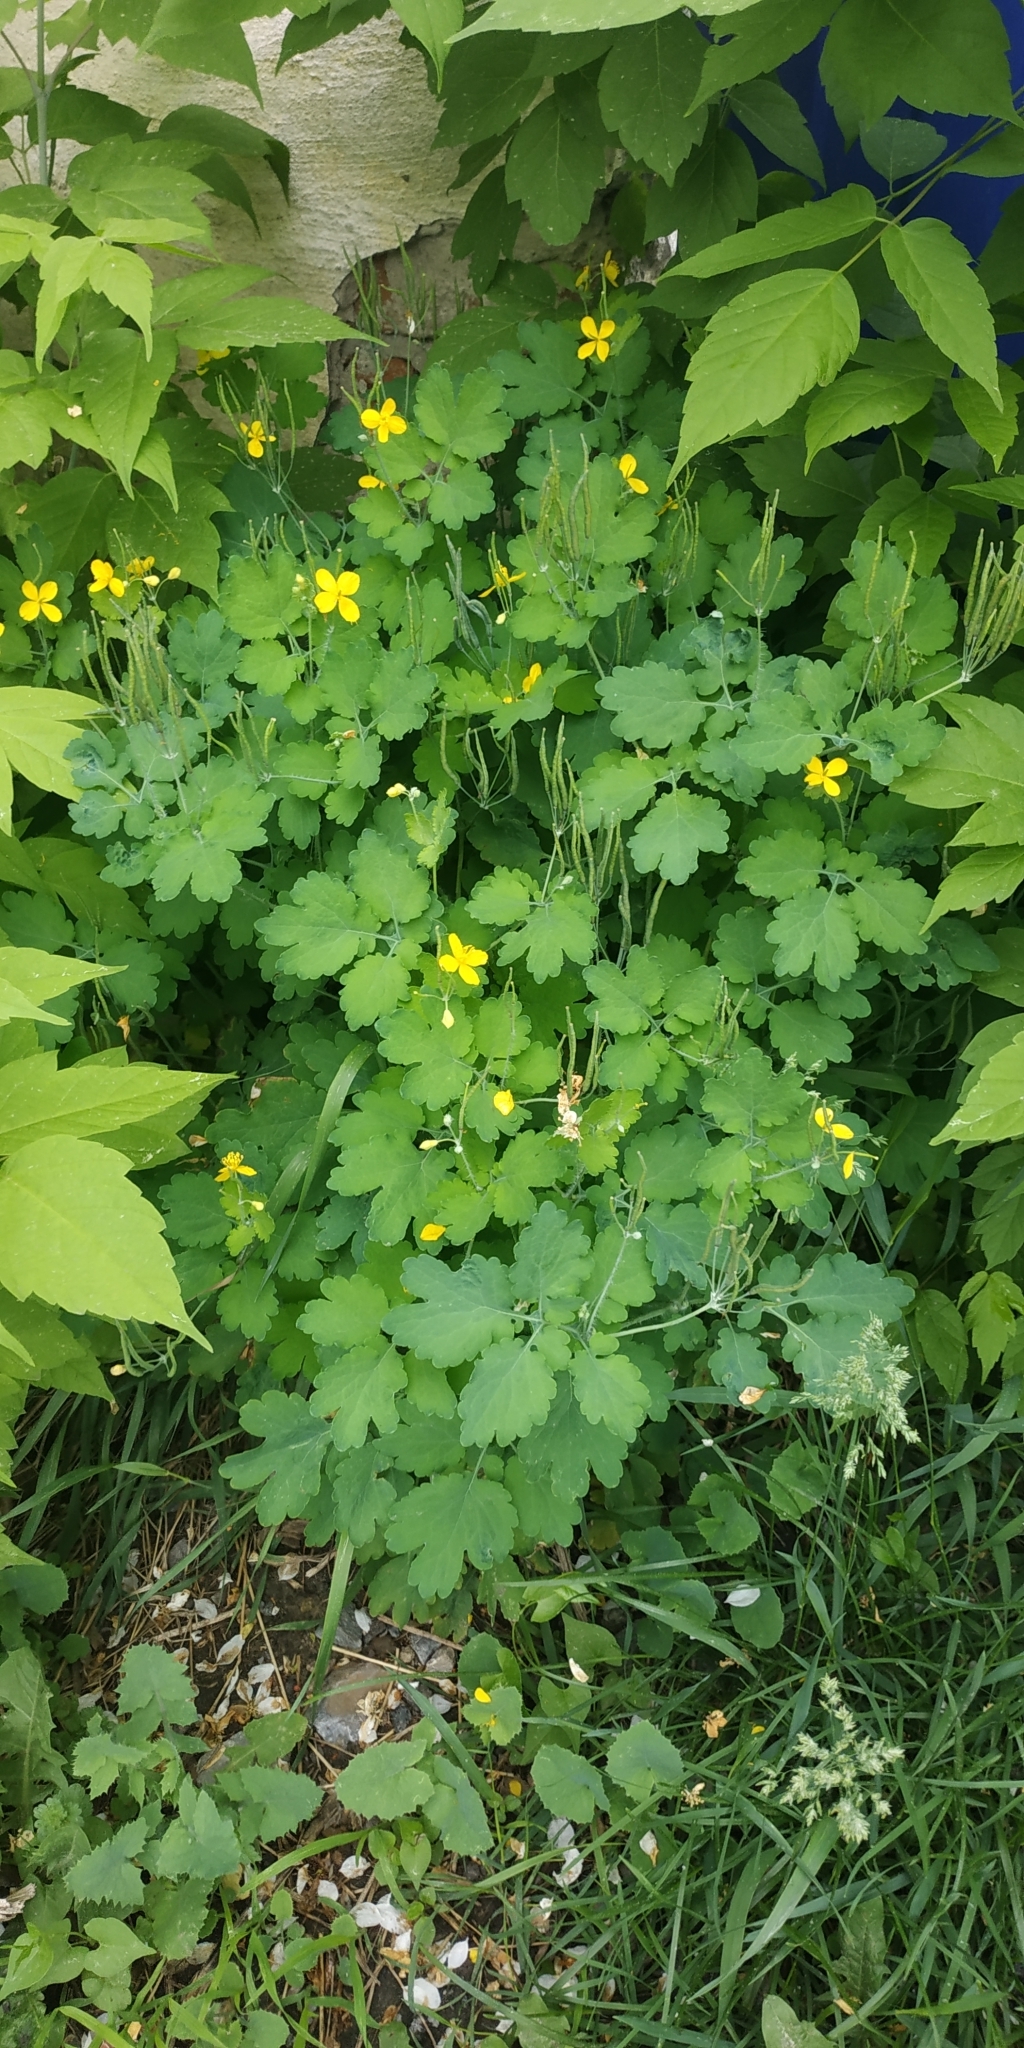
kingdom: Plantae
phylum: Tracheophyta
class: Magnoliopsida
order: Ranunculales
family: Papaveraceae
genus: Chelidonium
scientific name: Chelidonium majus
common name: Greater celandine
